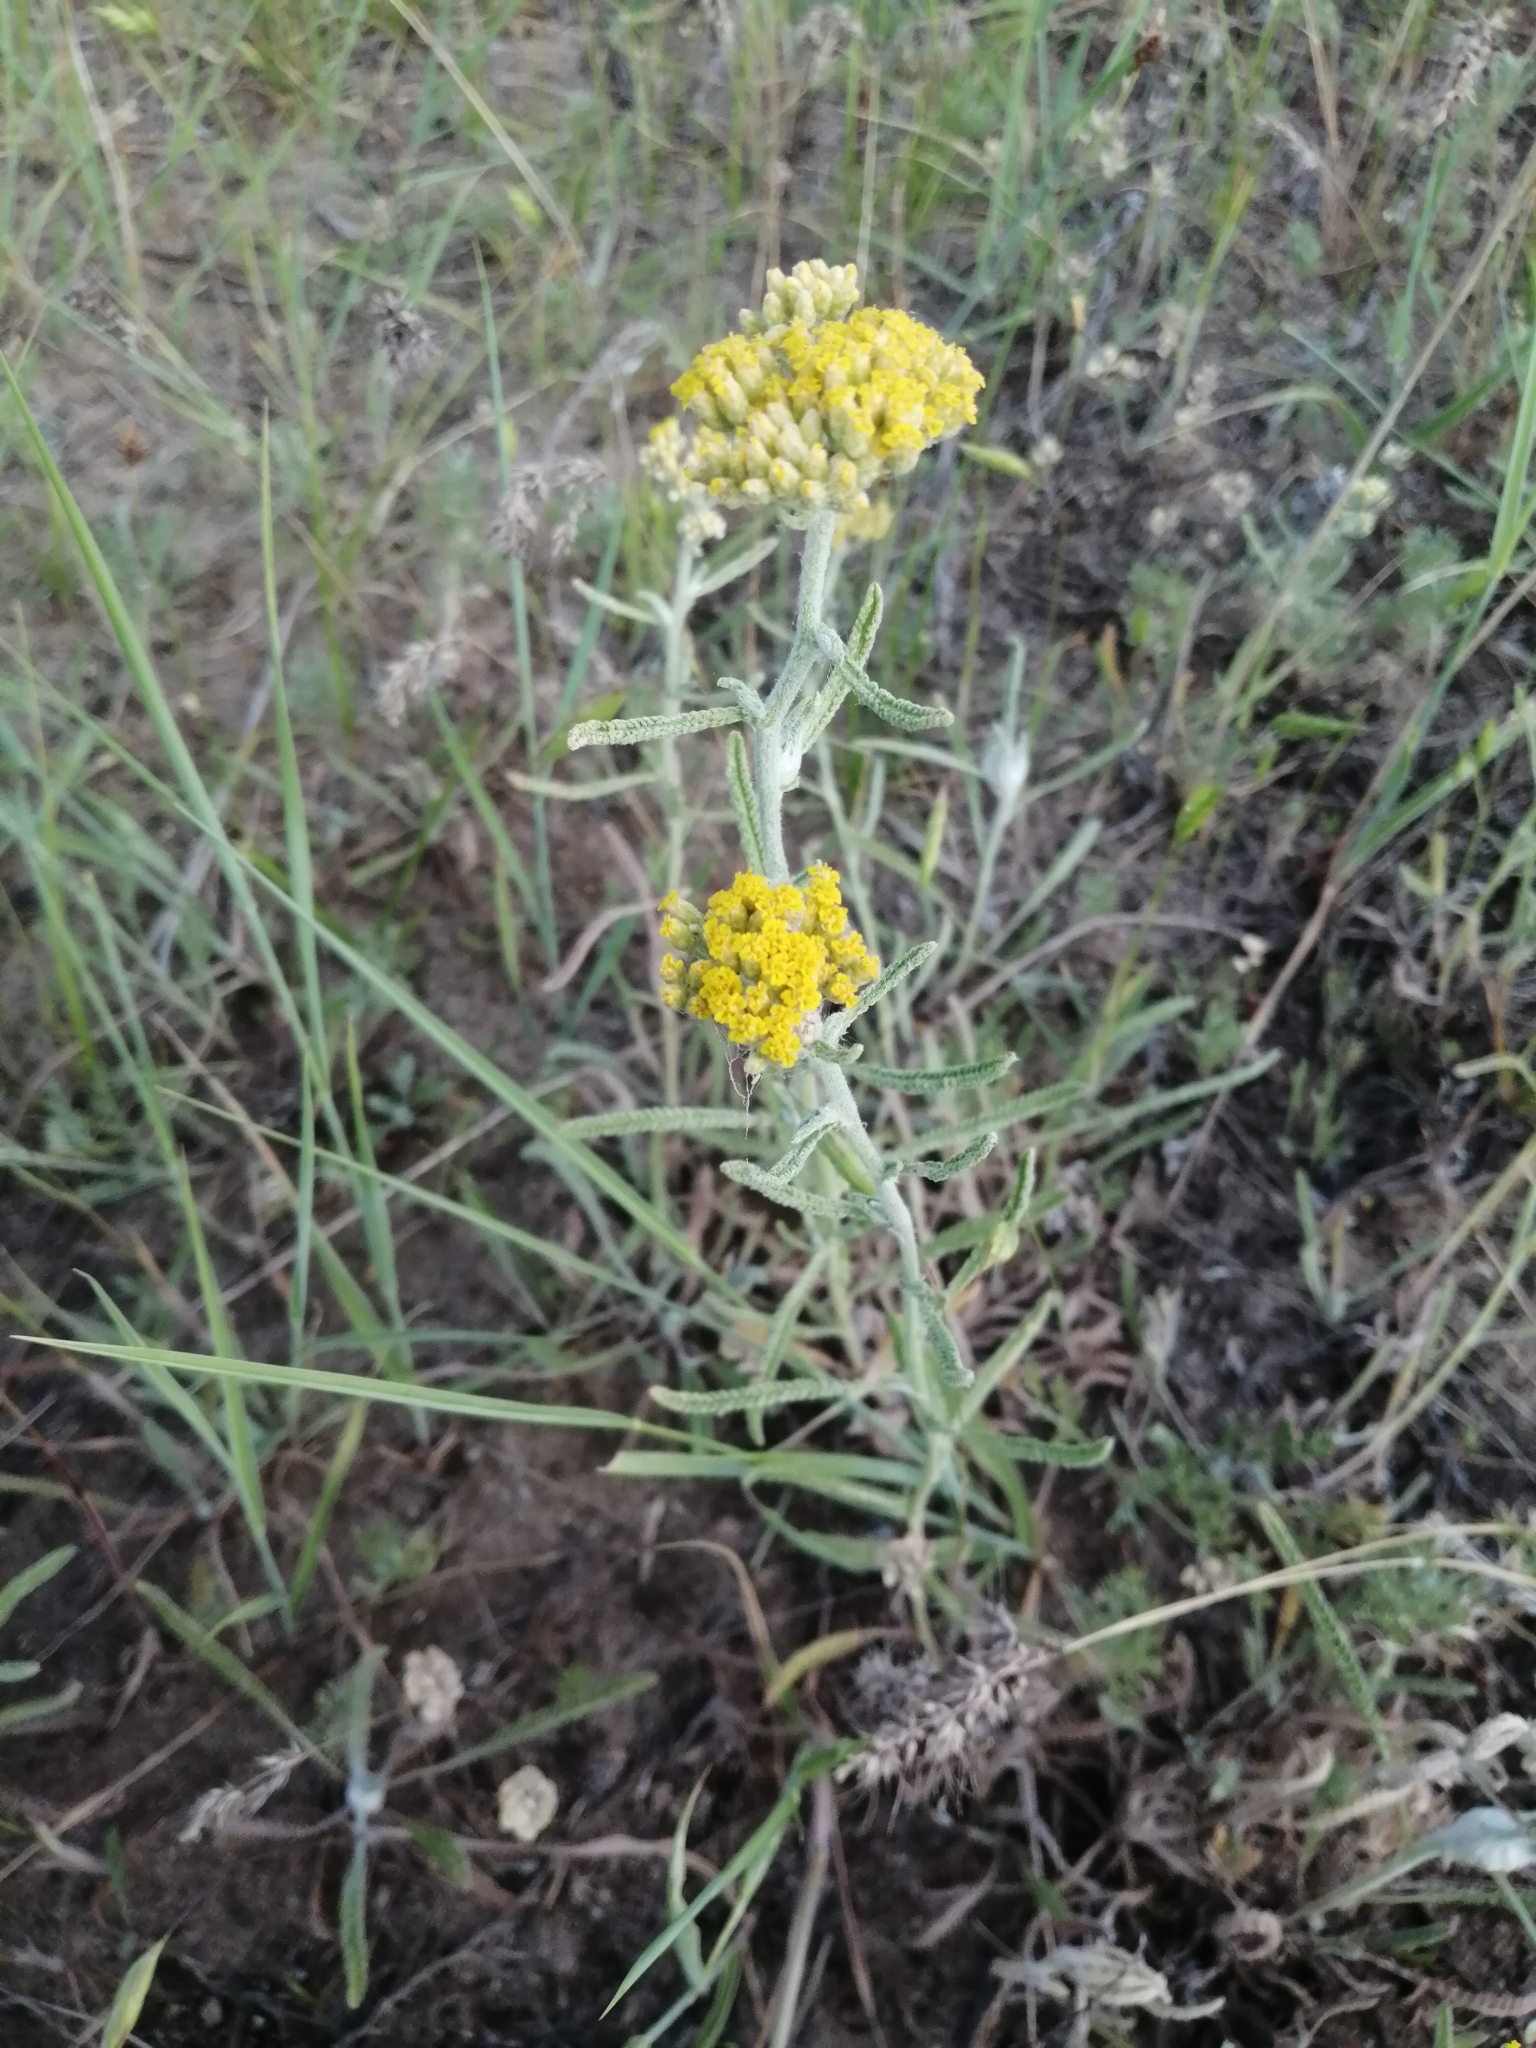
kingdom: Plantae
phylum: Tracheophyta
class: Magnoliopsida
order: Asterales
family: Asteraceae
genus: Achillea
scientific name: Achillea micrantha
